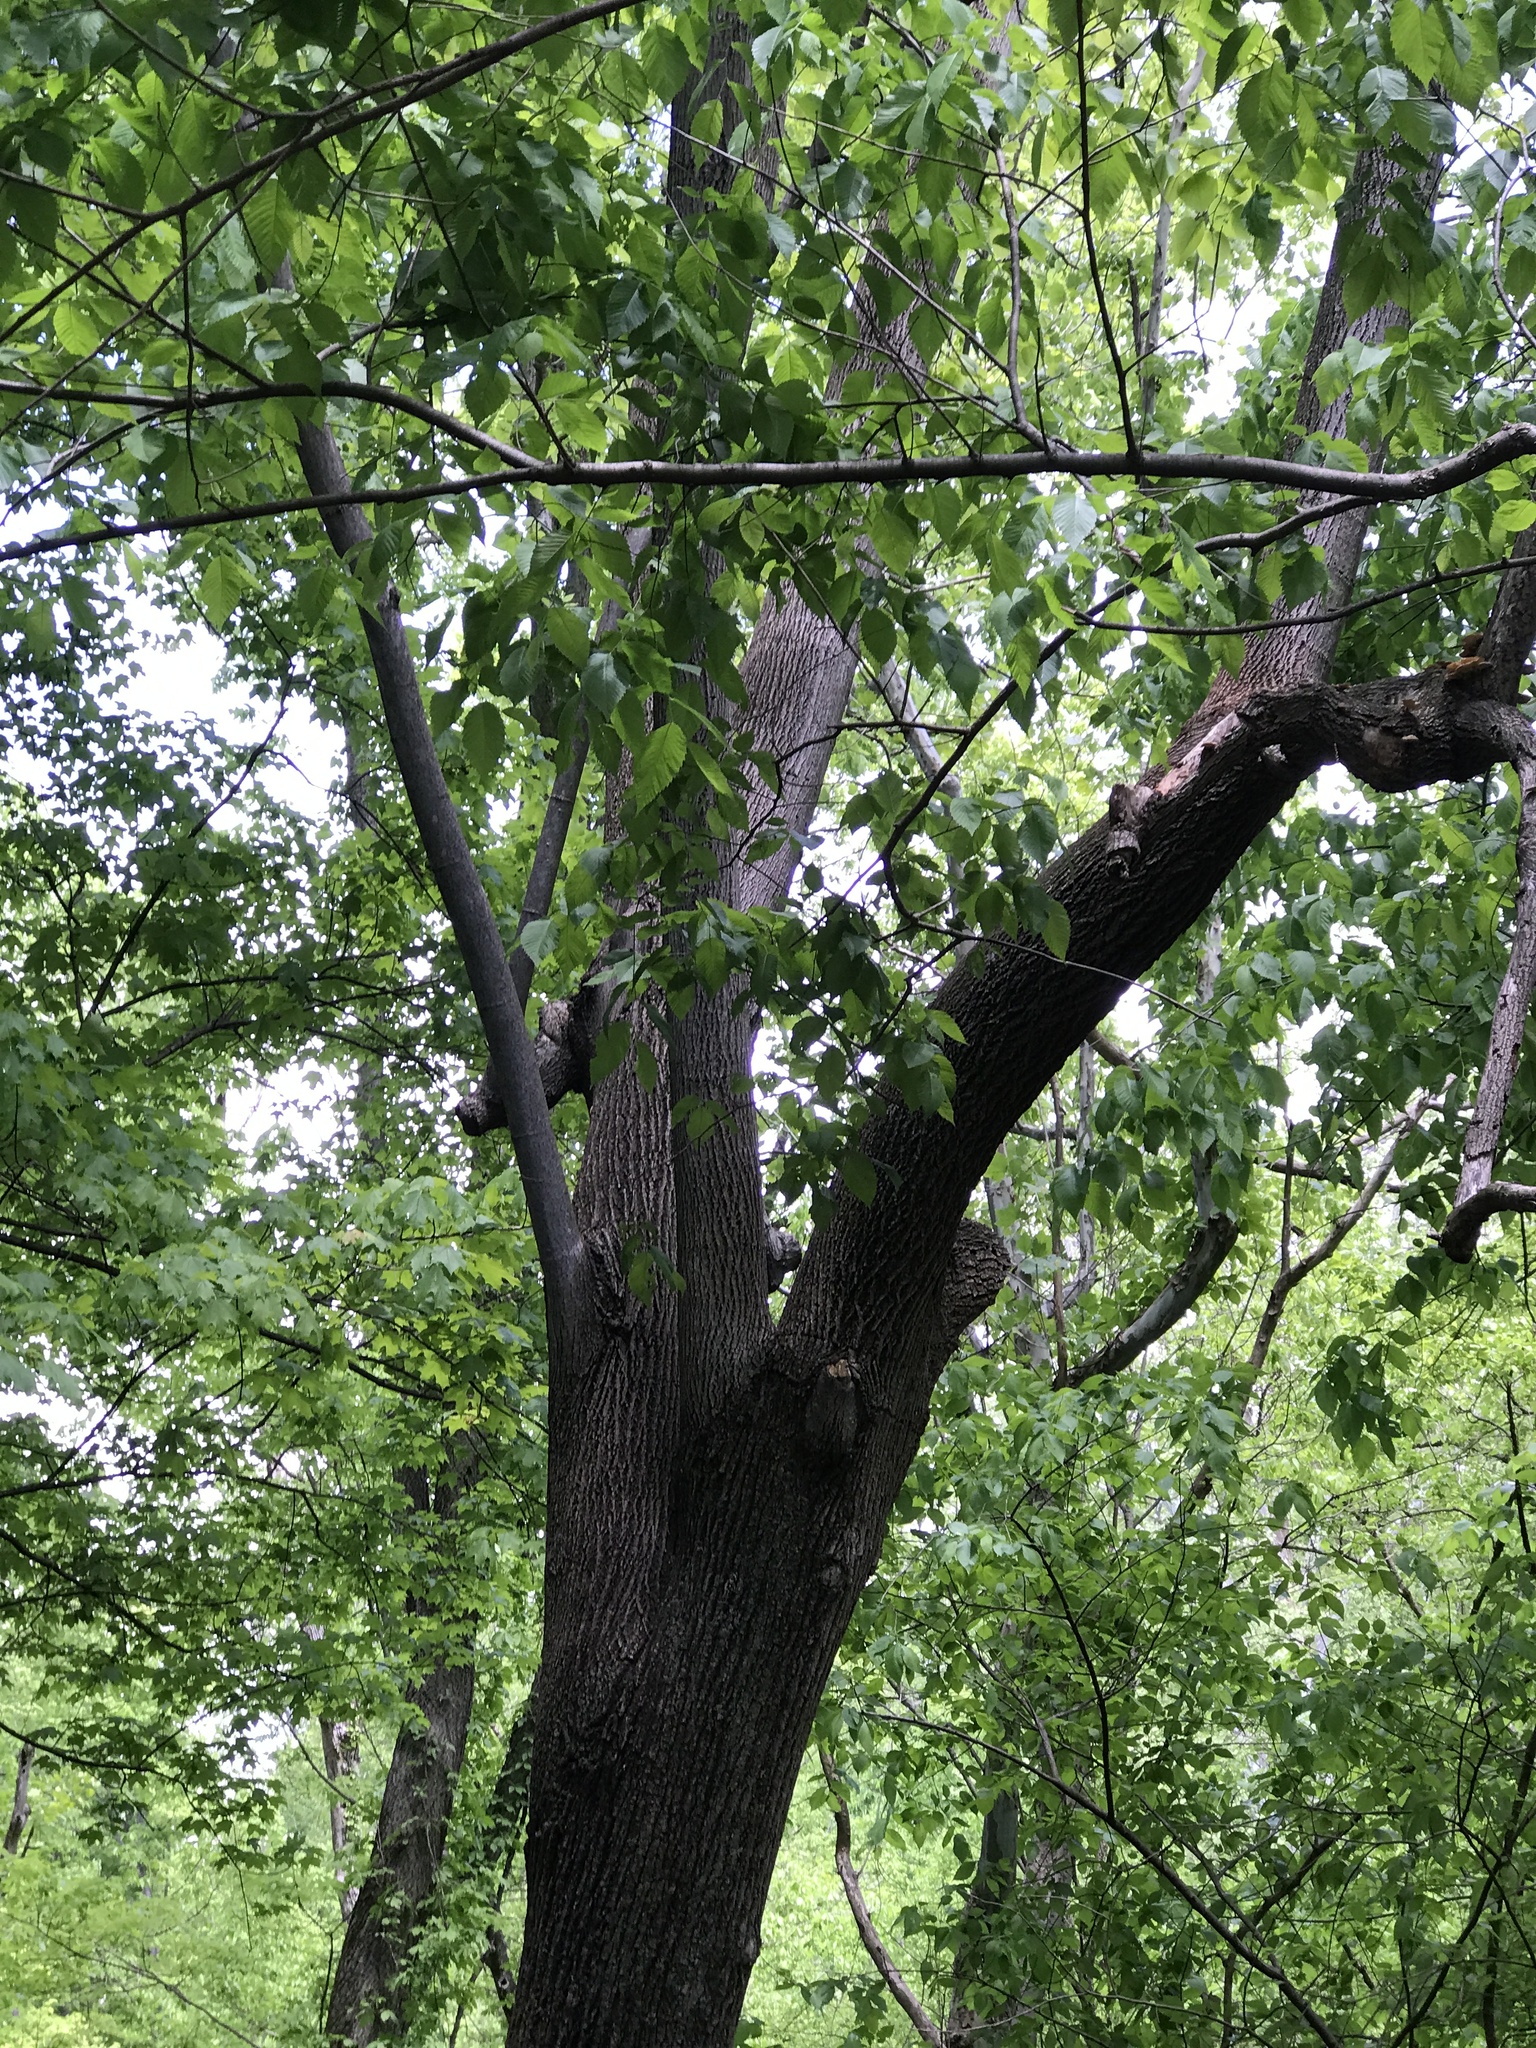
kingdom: Plantae
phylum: Tracheophyta
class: Magnoliopsida
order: Malvales
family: Malvaceae
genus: Tilia
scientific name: Tilia americana
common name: Basswood
